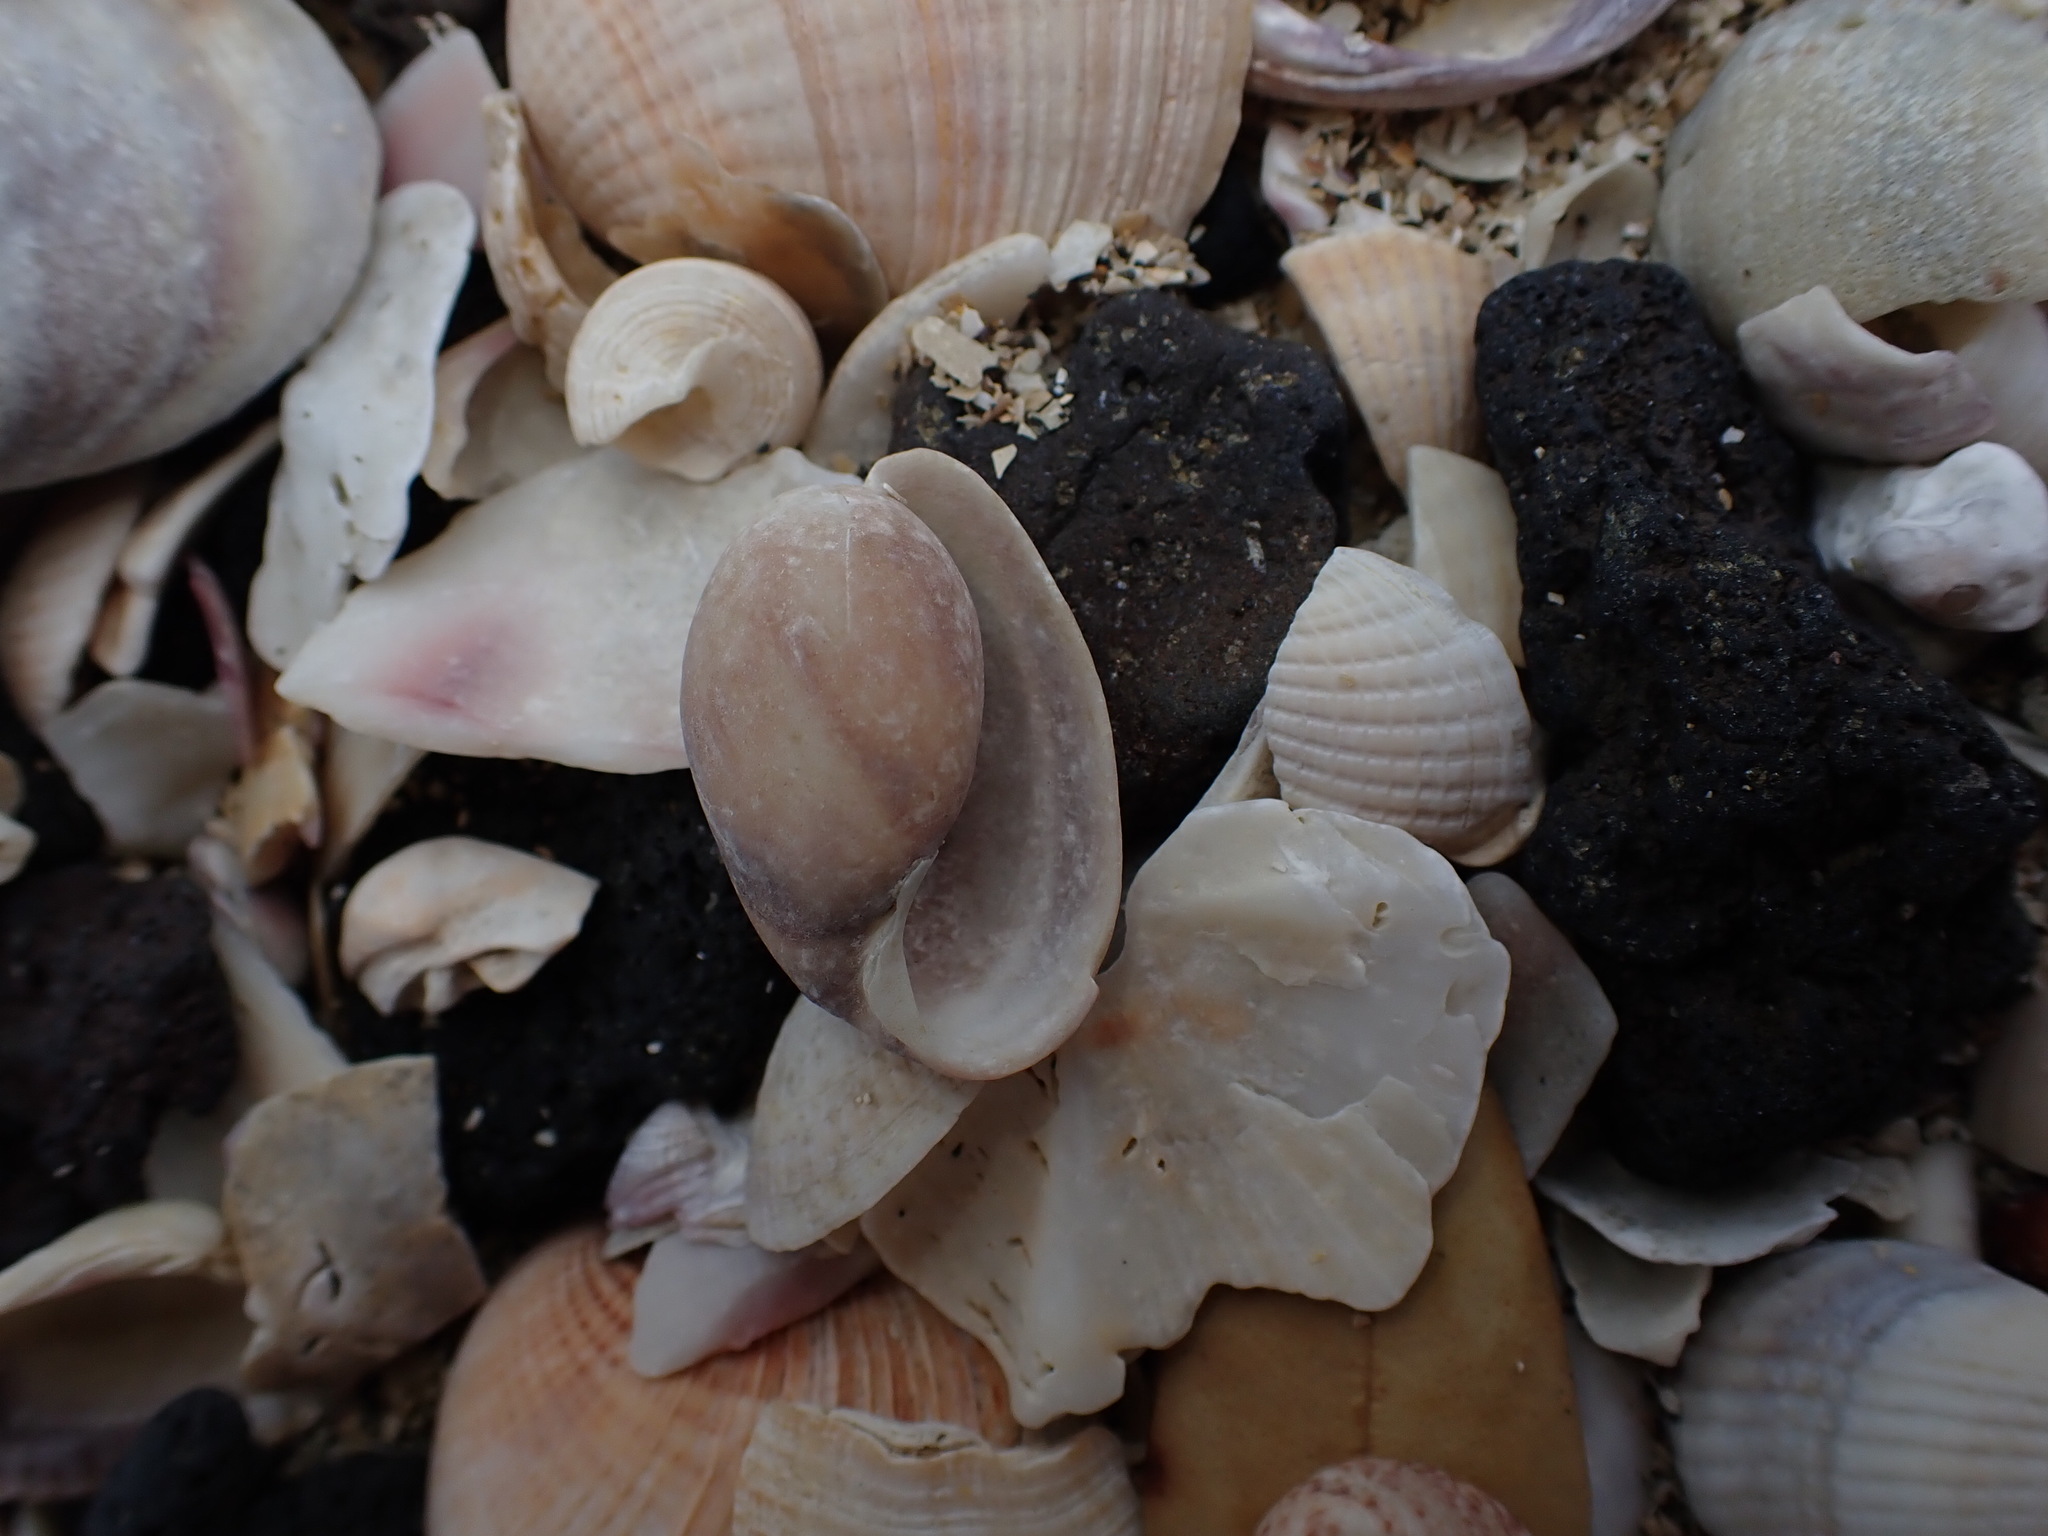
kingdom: Animalia
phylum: Mollusca
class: Gastropoda
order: Cephalaspidea
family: Bullidae
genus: Bulla
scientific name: Bulla quoyii
